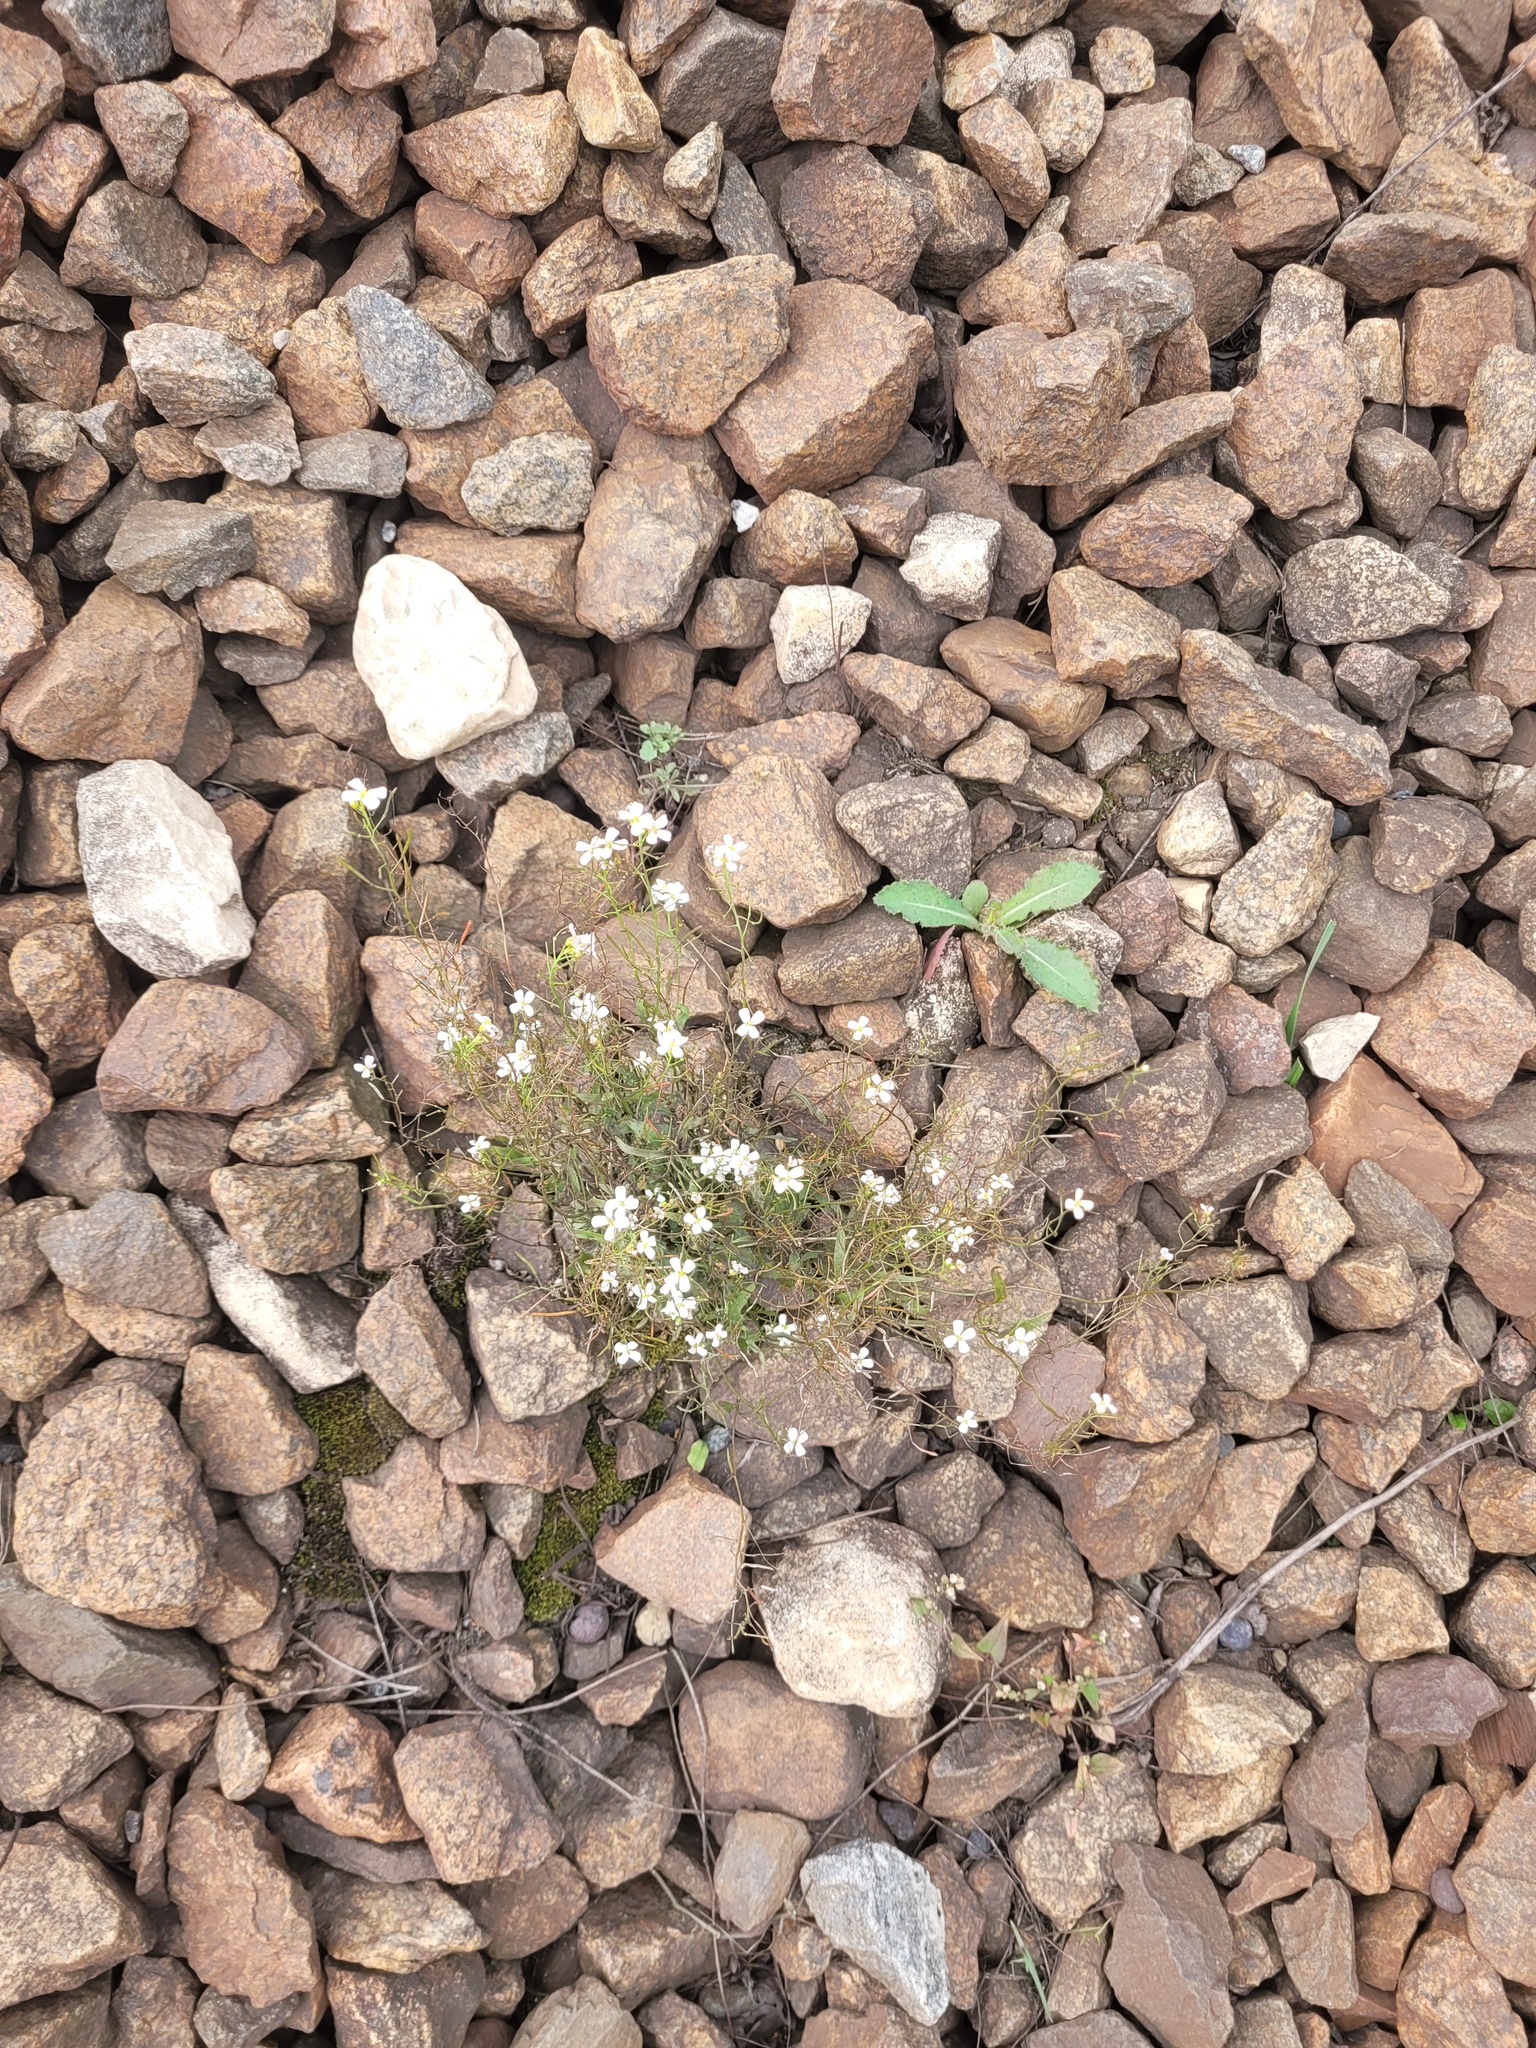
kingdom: Plantae
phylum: Tracheophyta
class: Magnoliopsida
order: Brassicales
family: Brassicaceae
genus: Arabidopsis
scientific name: Arabidopsis arenosa
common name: Sand rock-cress
